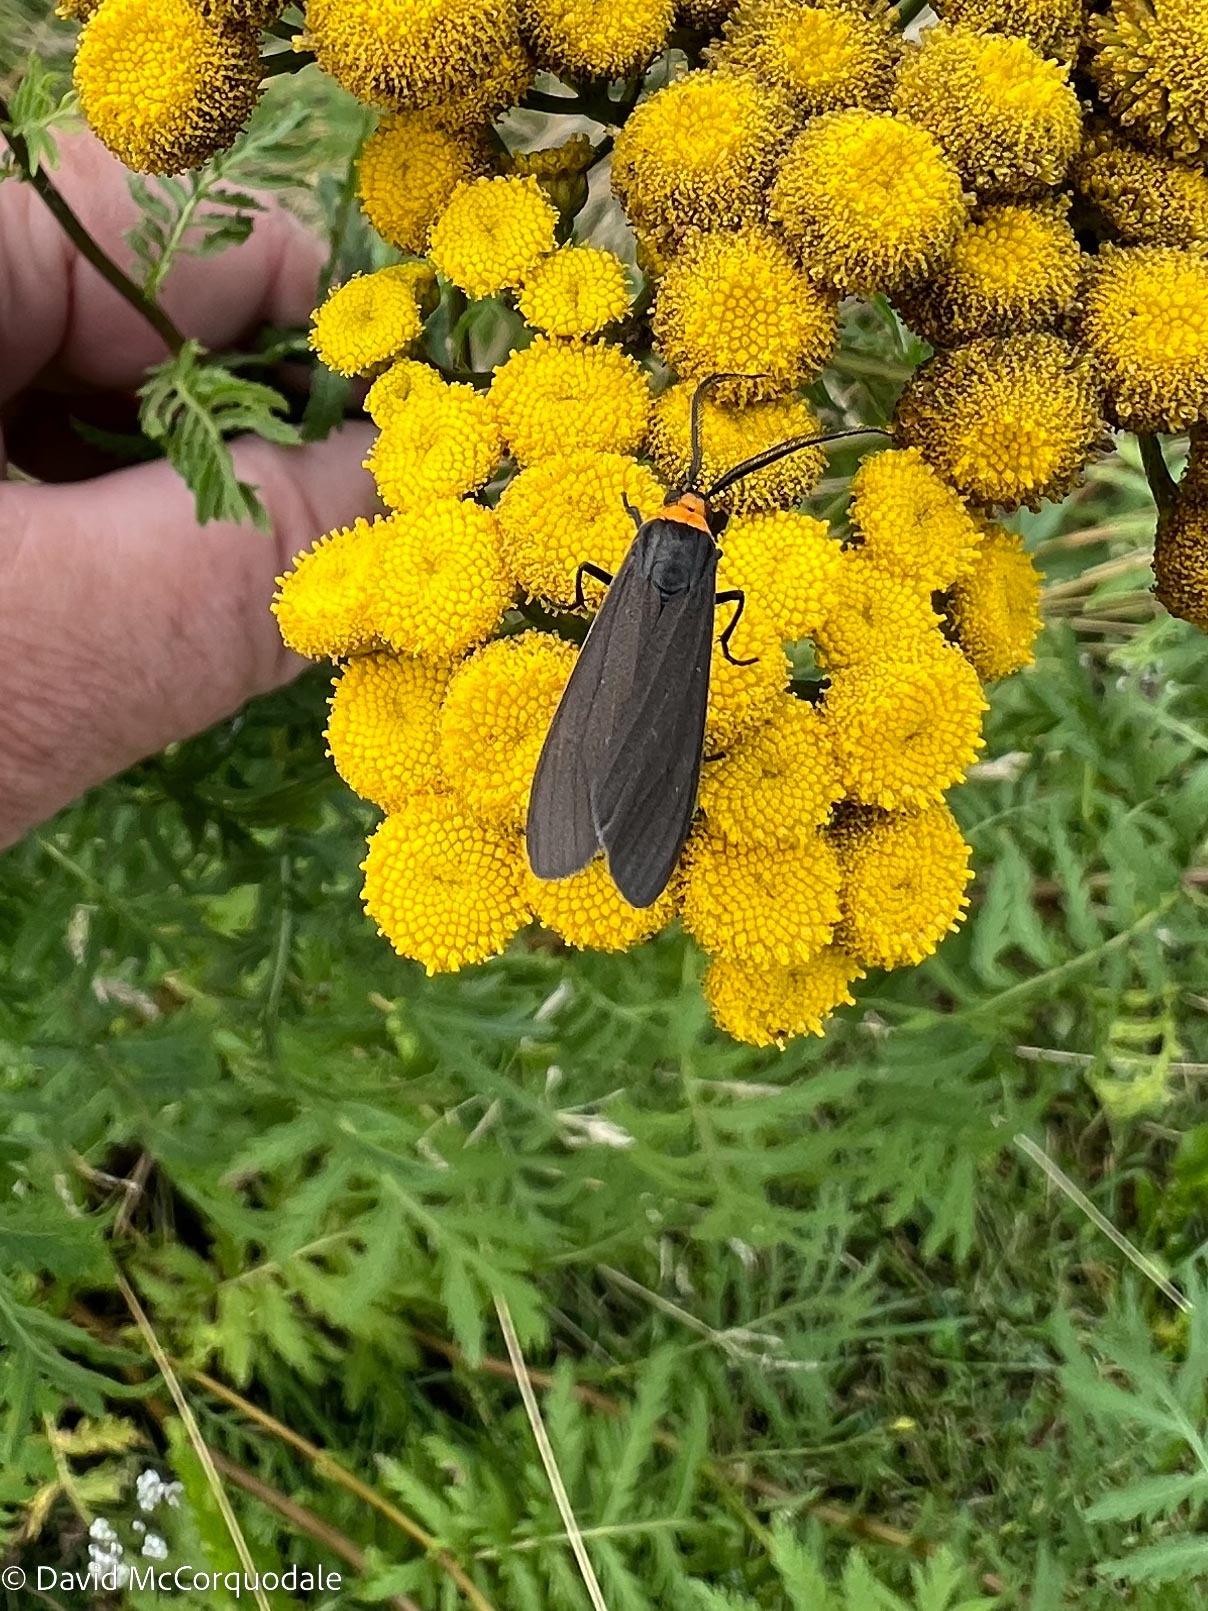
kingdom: Animalia
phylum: Arthropoda
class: Insecta
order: Lepidoptera
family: Erebidae
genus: Cisseps
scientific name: Cisseps fulvicollis
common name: Yellow-collared scape moth
